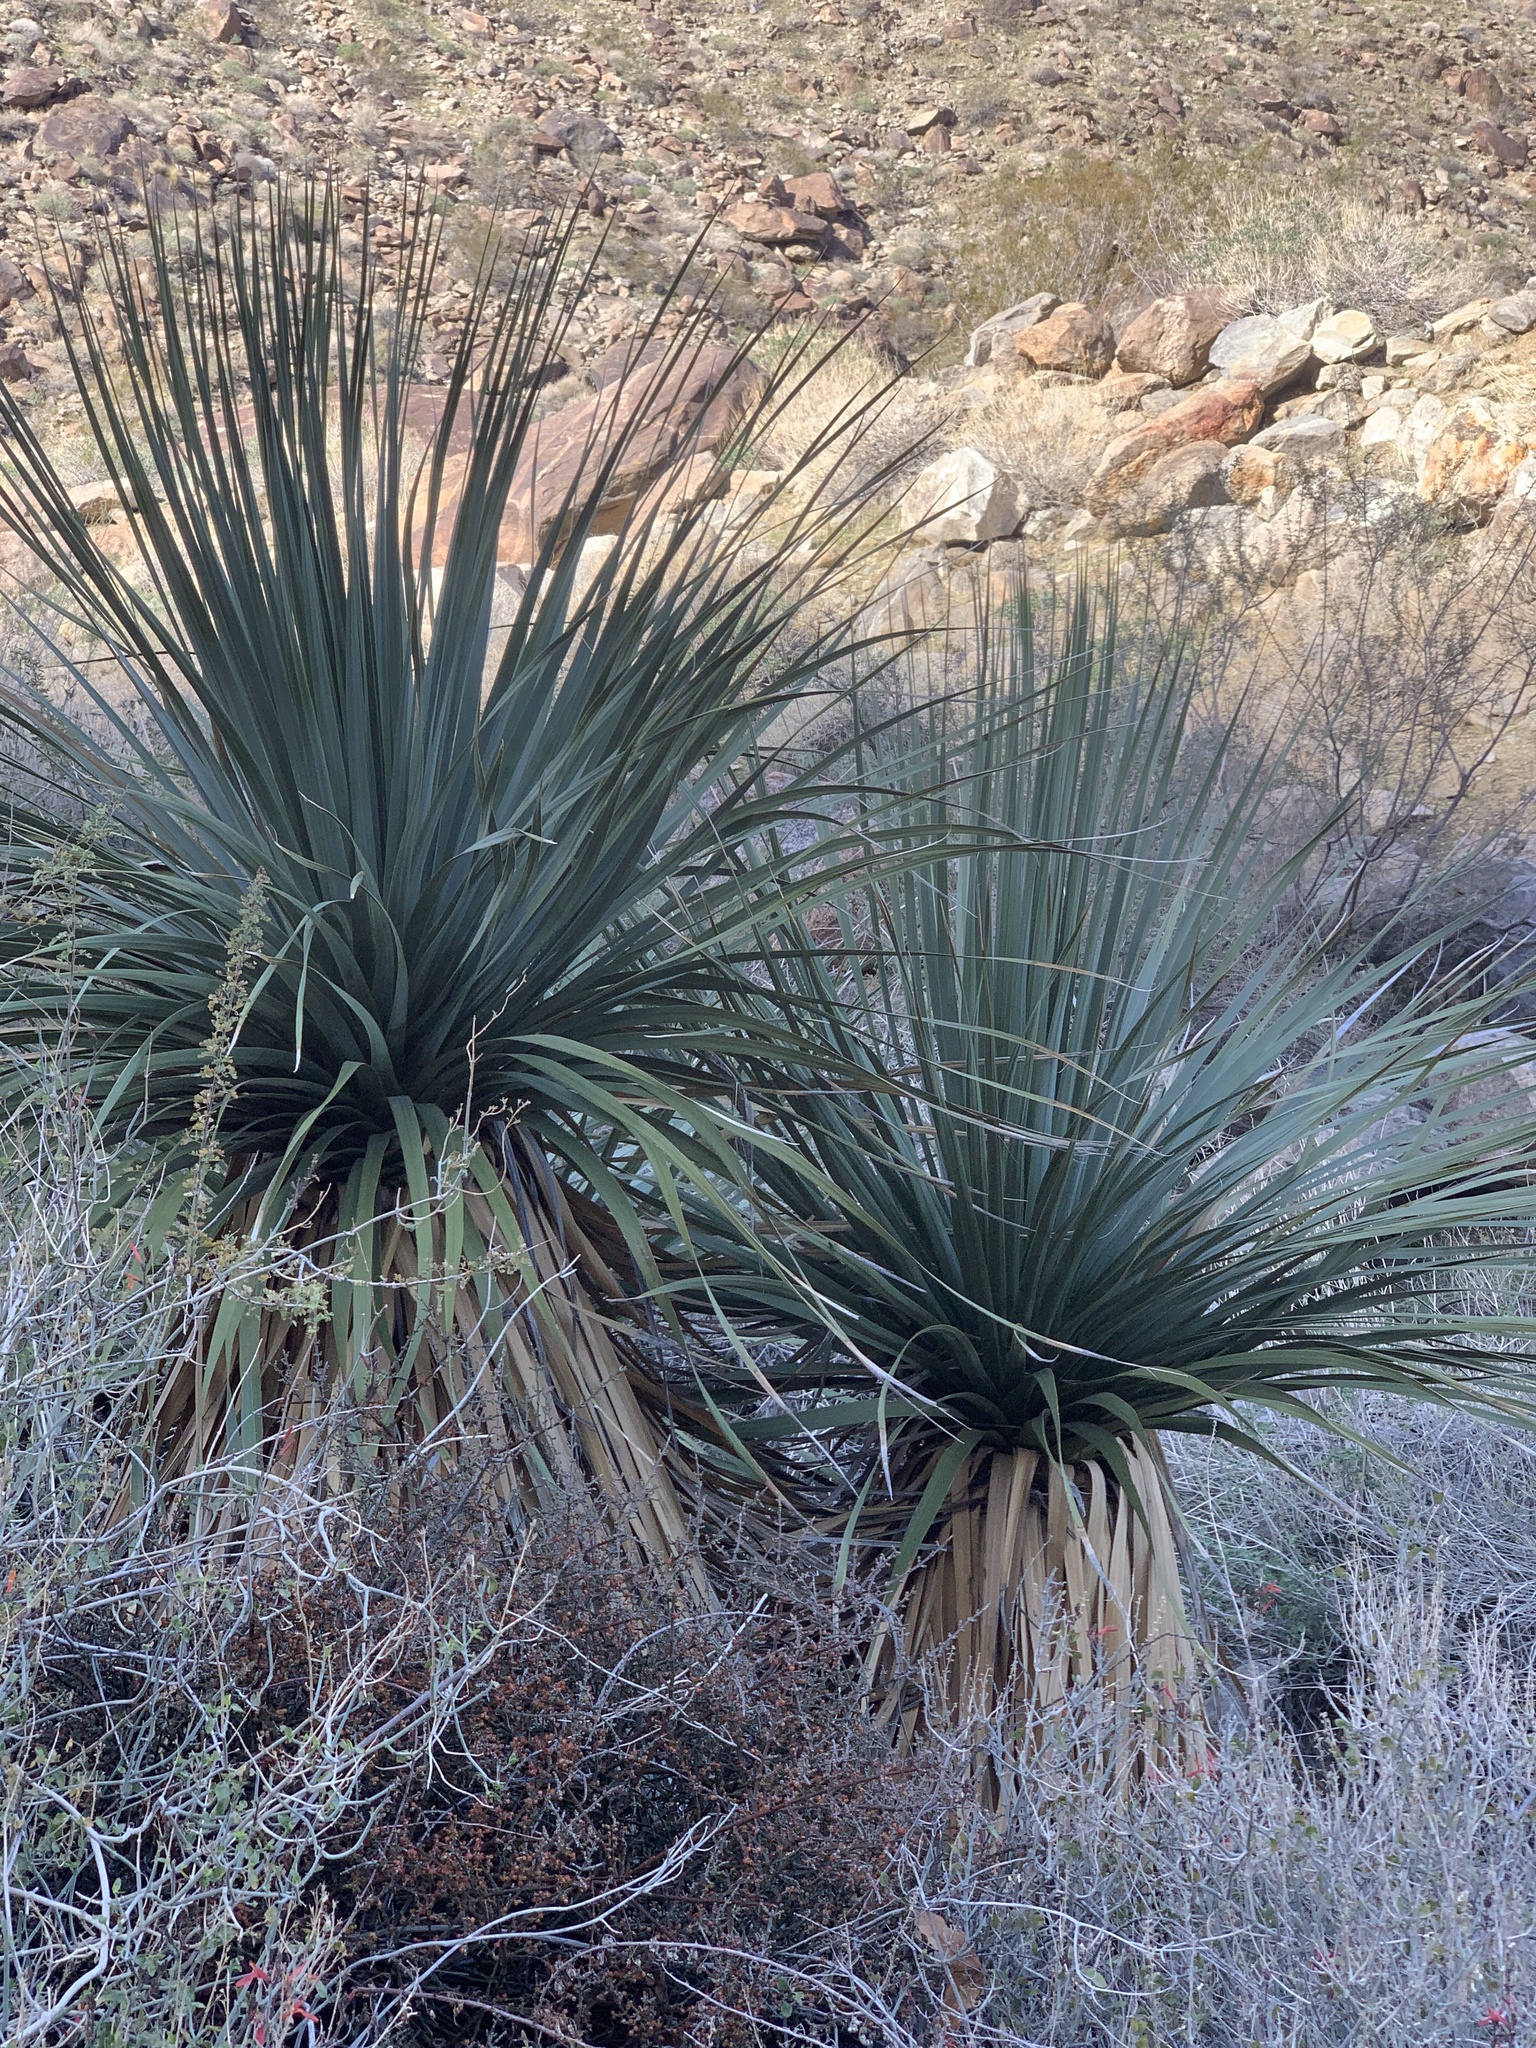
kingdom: Plantae
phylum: Tracheophyta
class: Liliopsida
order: Asparagales
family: Asparagaceae
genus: Nolina
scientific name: Nolina parryi
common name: Parry nolina
